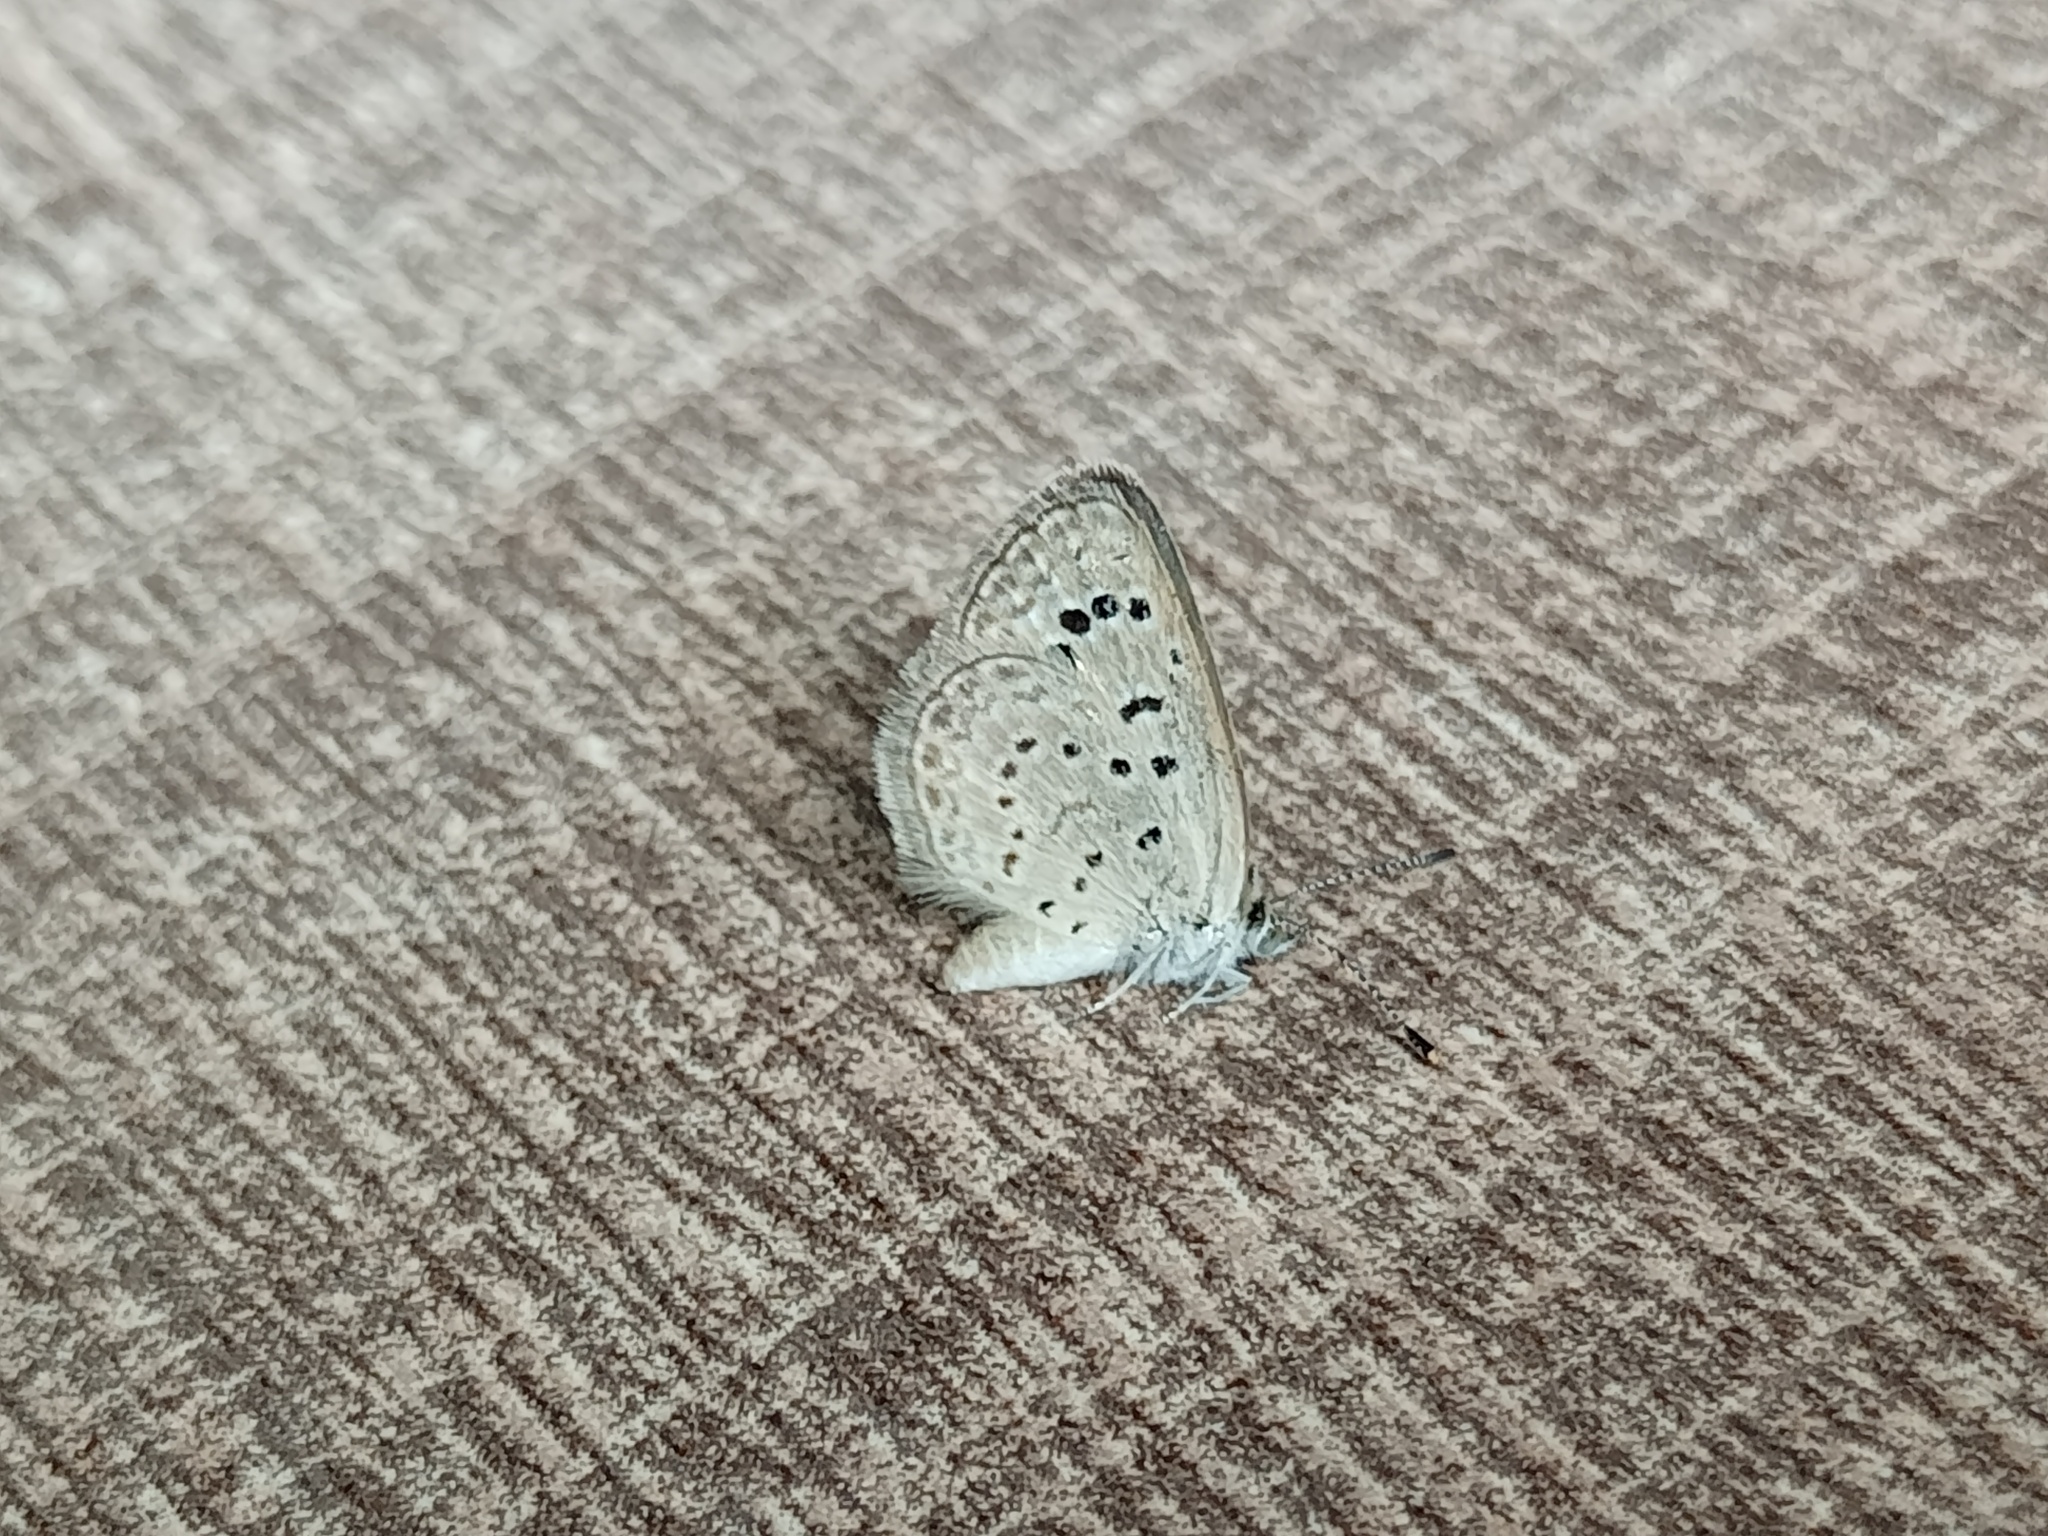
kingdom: Animalia
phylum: Arthropoda
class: Insecta
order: Lepidoptera
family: Lycaenidae
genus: Zizeeria
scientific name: Zizeeria karsandra
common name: Dark grass blue
